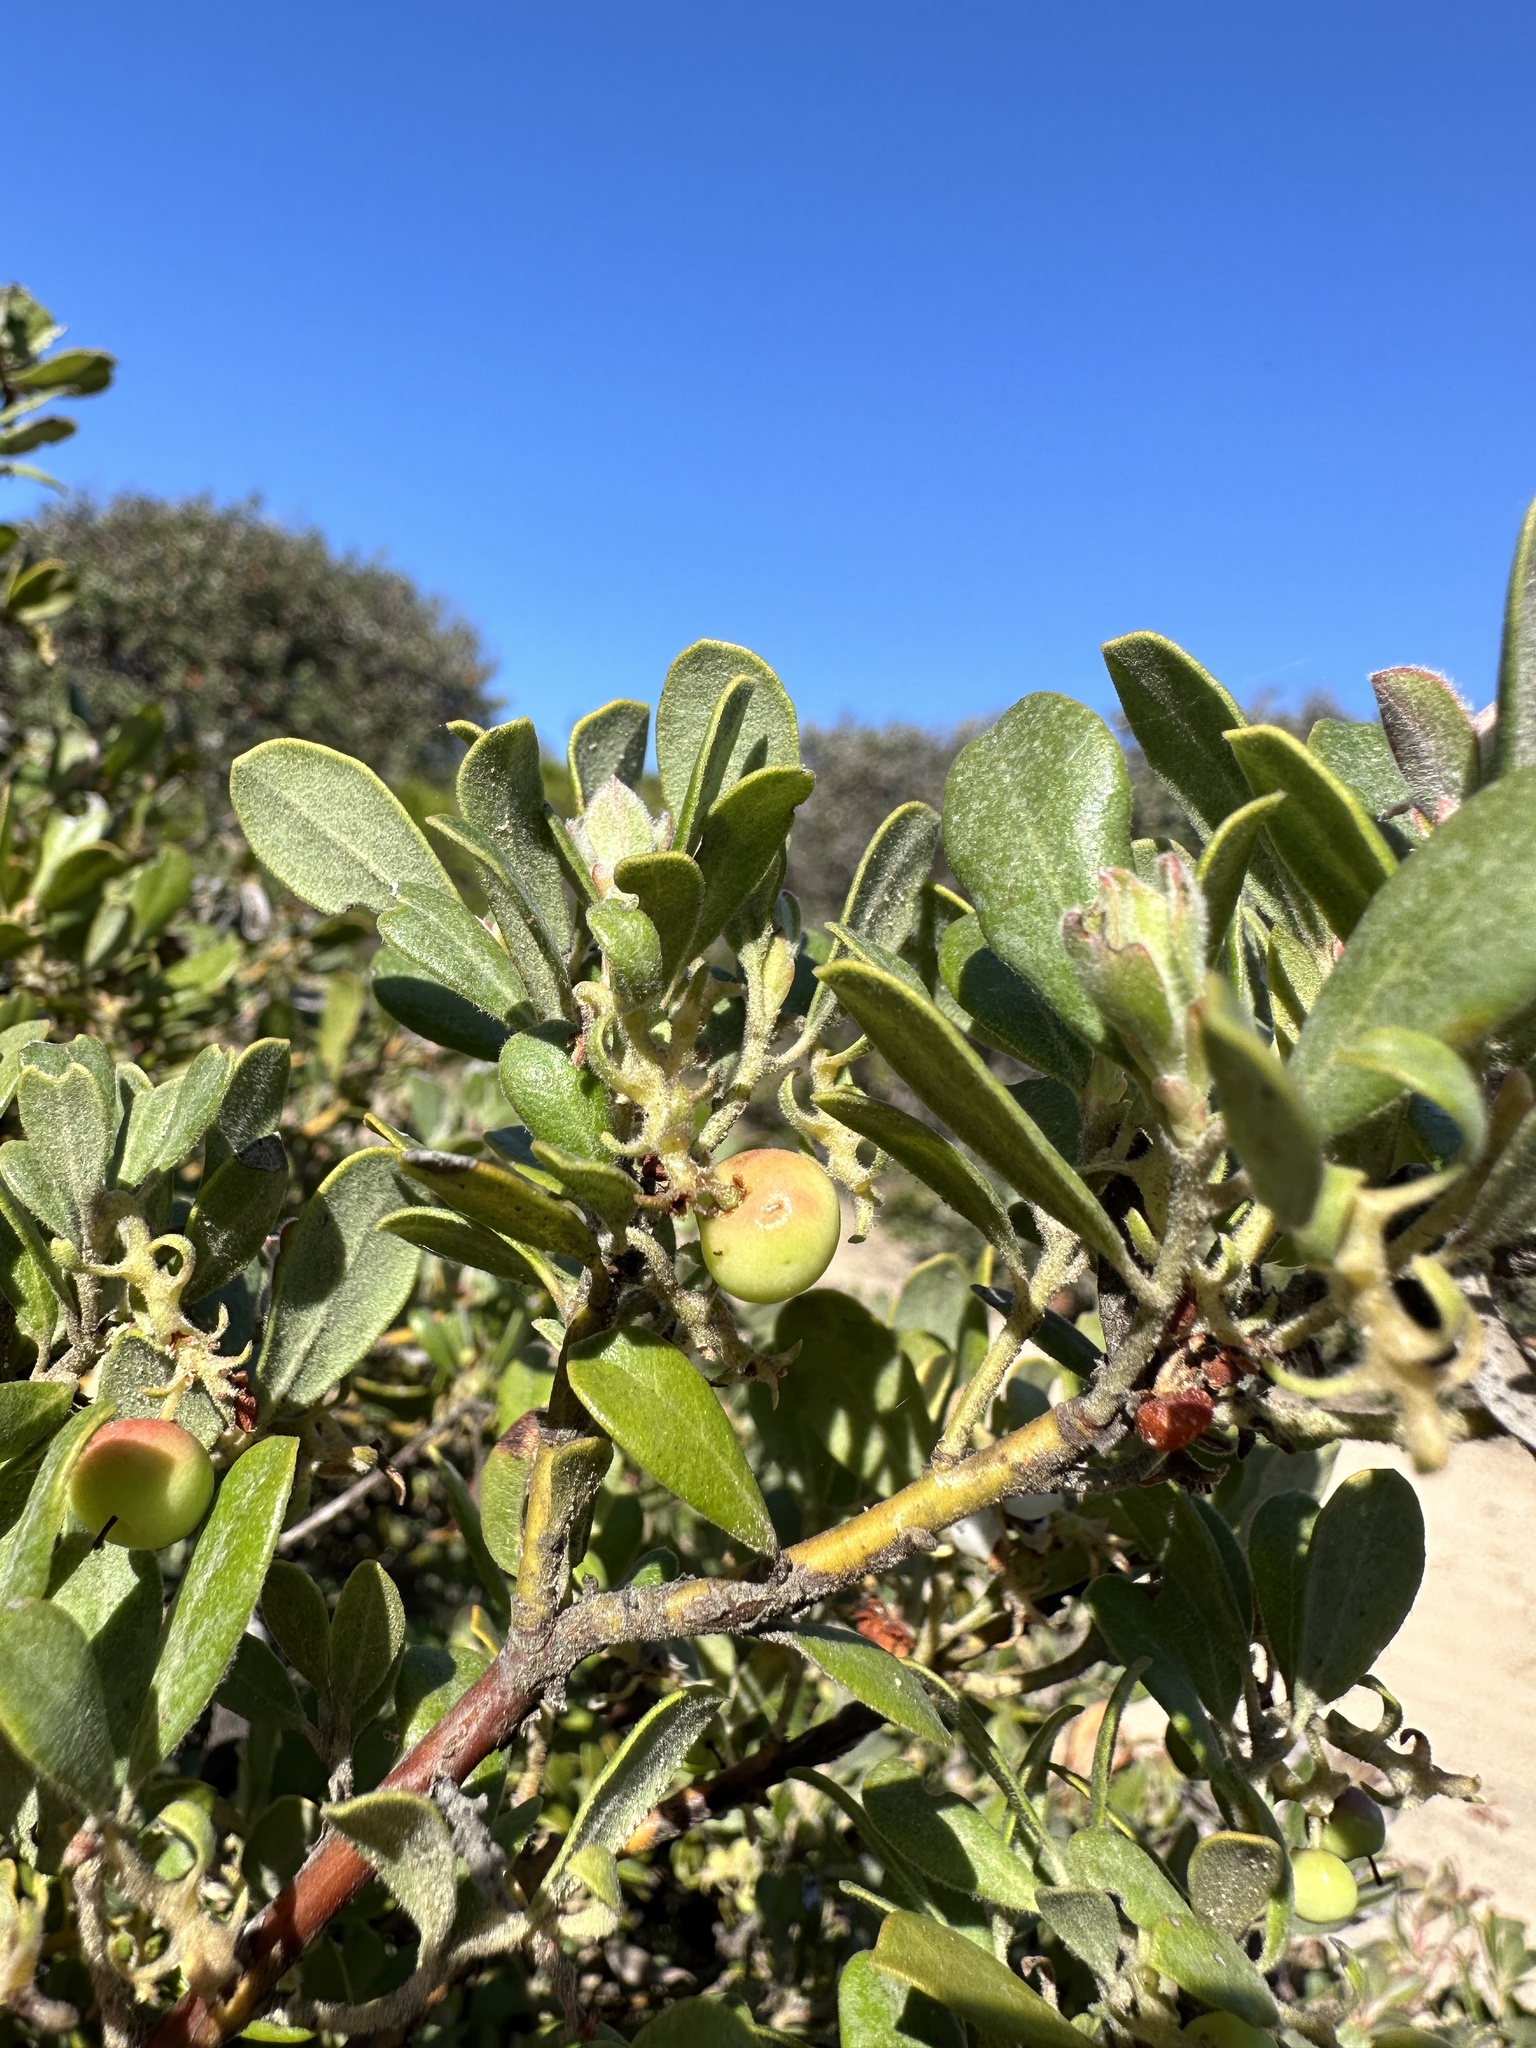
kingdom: Plantae
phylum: Tracheophyta
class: Magnoliopsida
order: Ericales
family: Ericaceae
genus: Arctostaphylos
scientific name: Arctostaphylos pumila
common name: Sandmat manzanita
